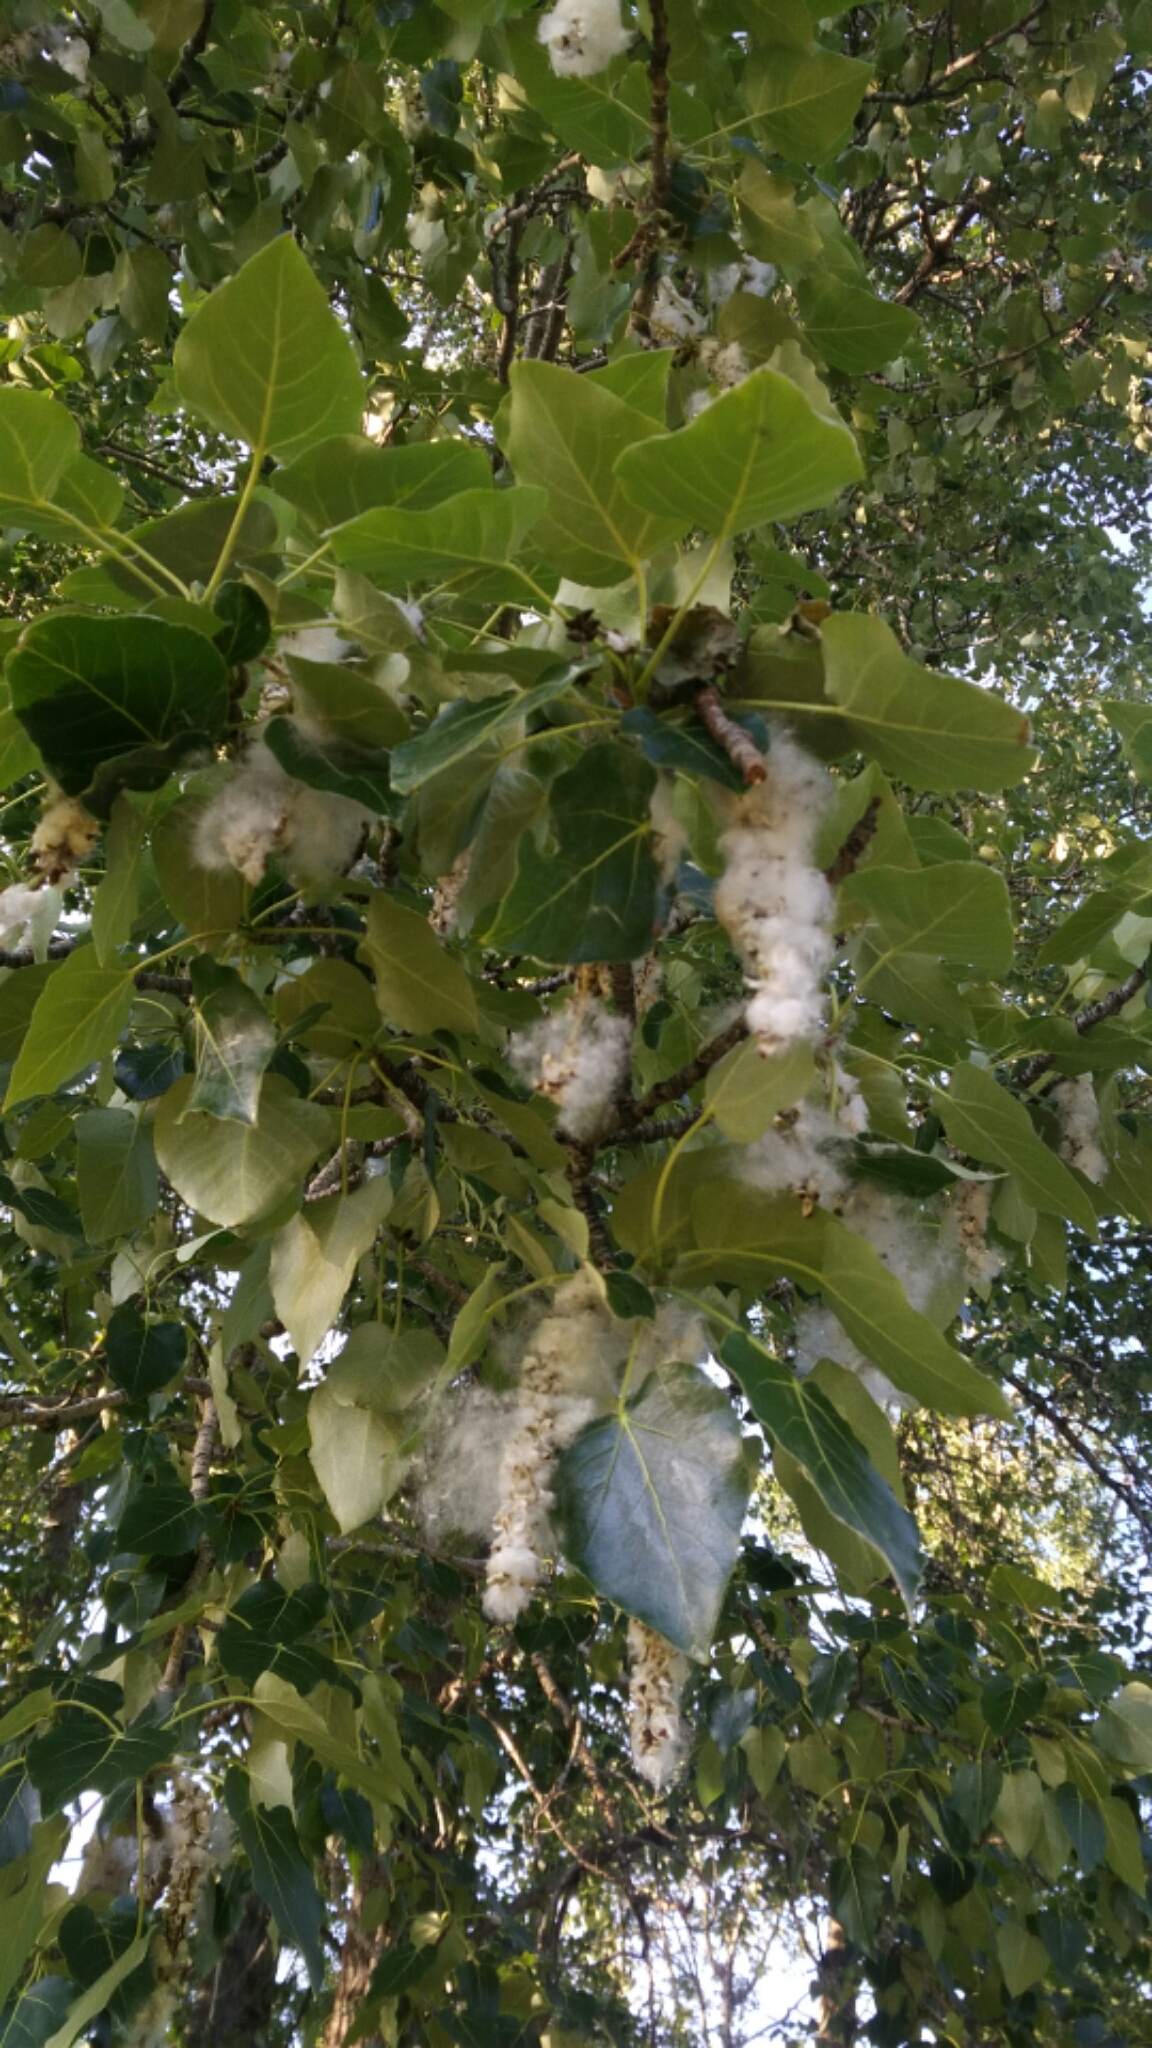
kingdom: Plantae
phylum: Tracheophyta
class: Magnoliopsida
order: Malpighiales
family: Salicaceae
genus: Populus
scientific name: Populus balsamifera
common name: Balsam poplar
